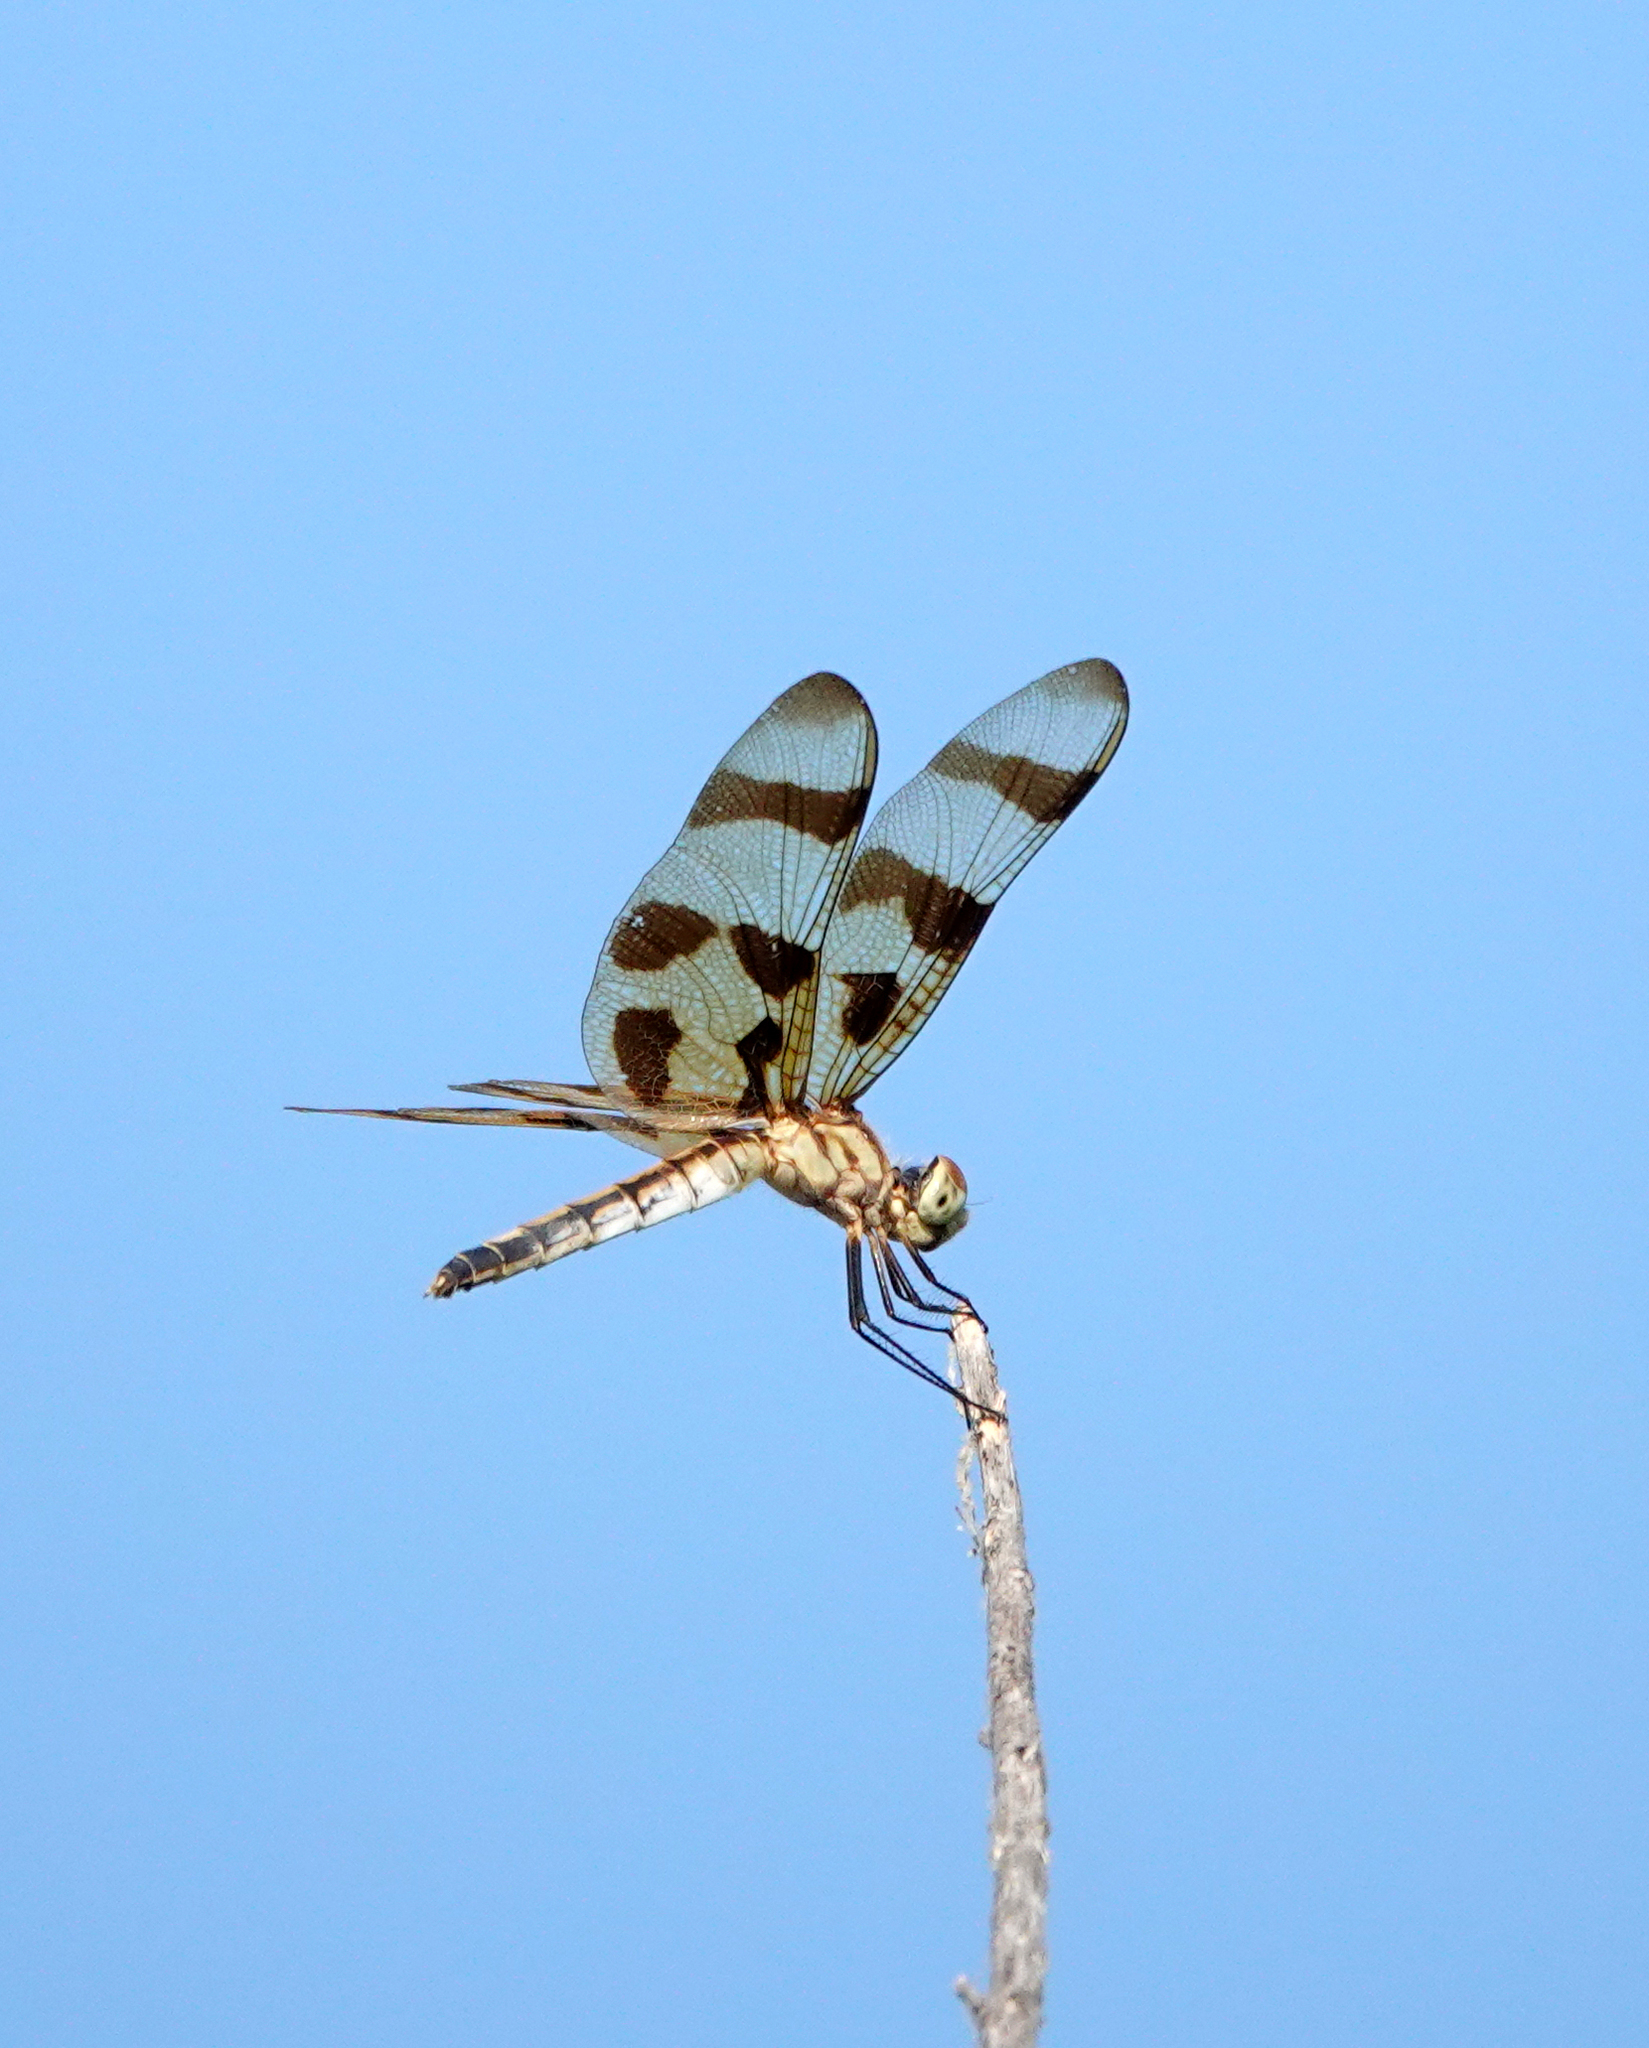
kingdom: Animalia
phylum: Arthropoda
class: Insecta
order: Odonata
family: Libellulidae
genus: Celithemis
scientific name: Celithemis eponina
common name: Halloween pennant
